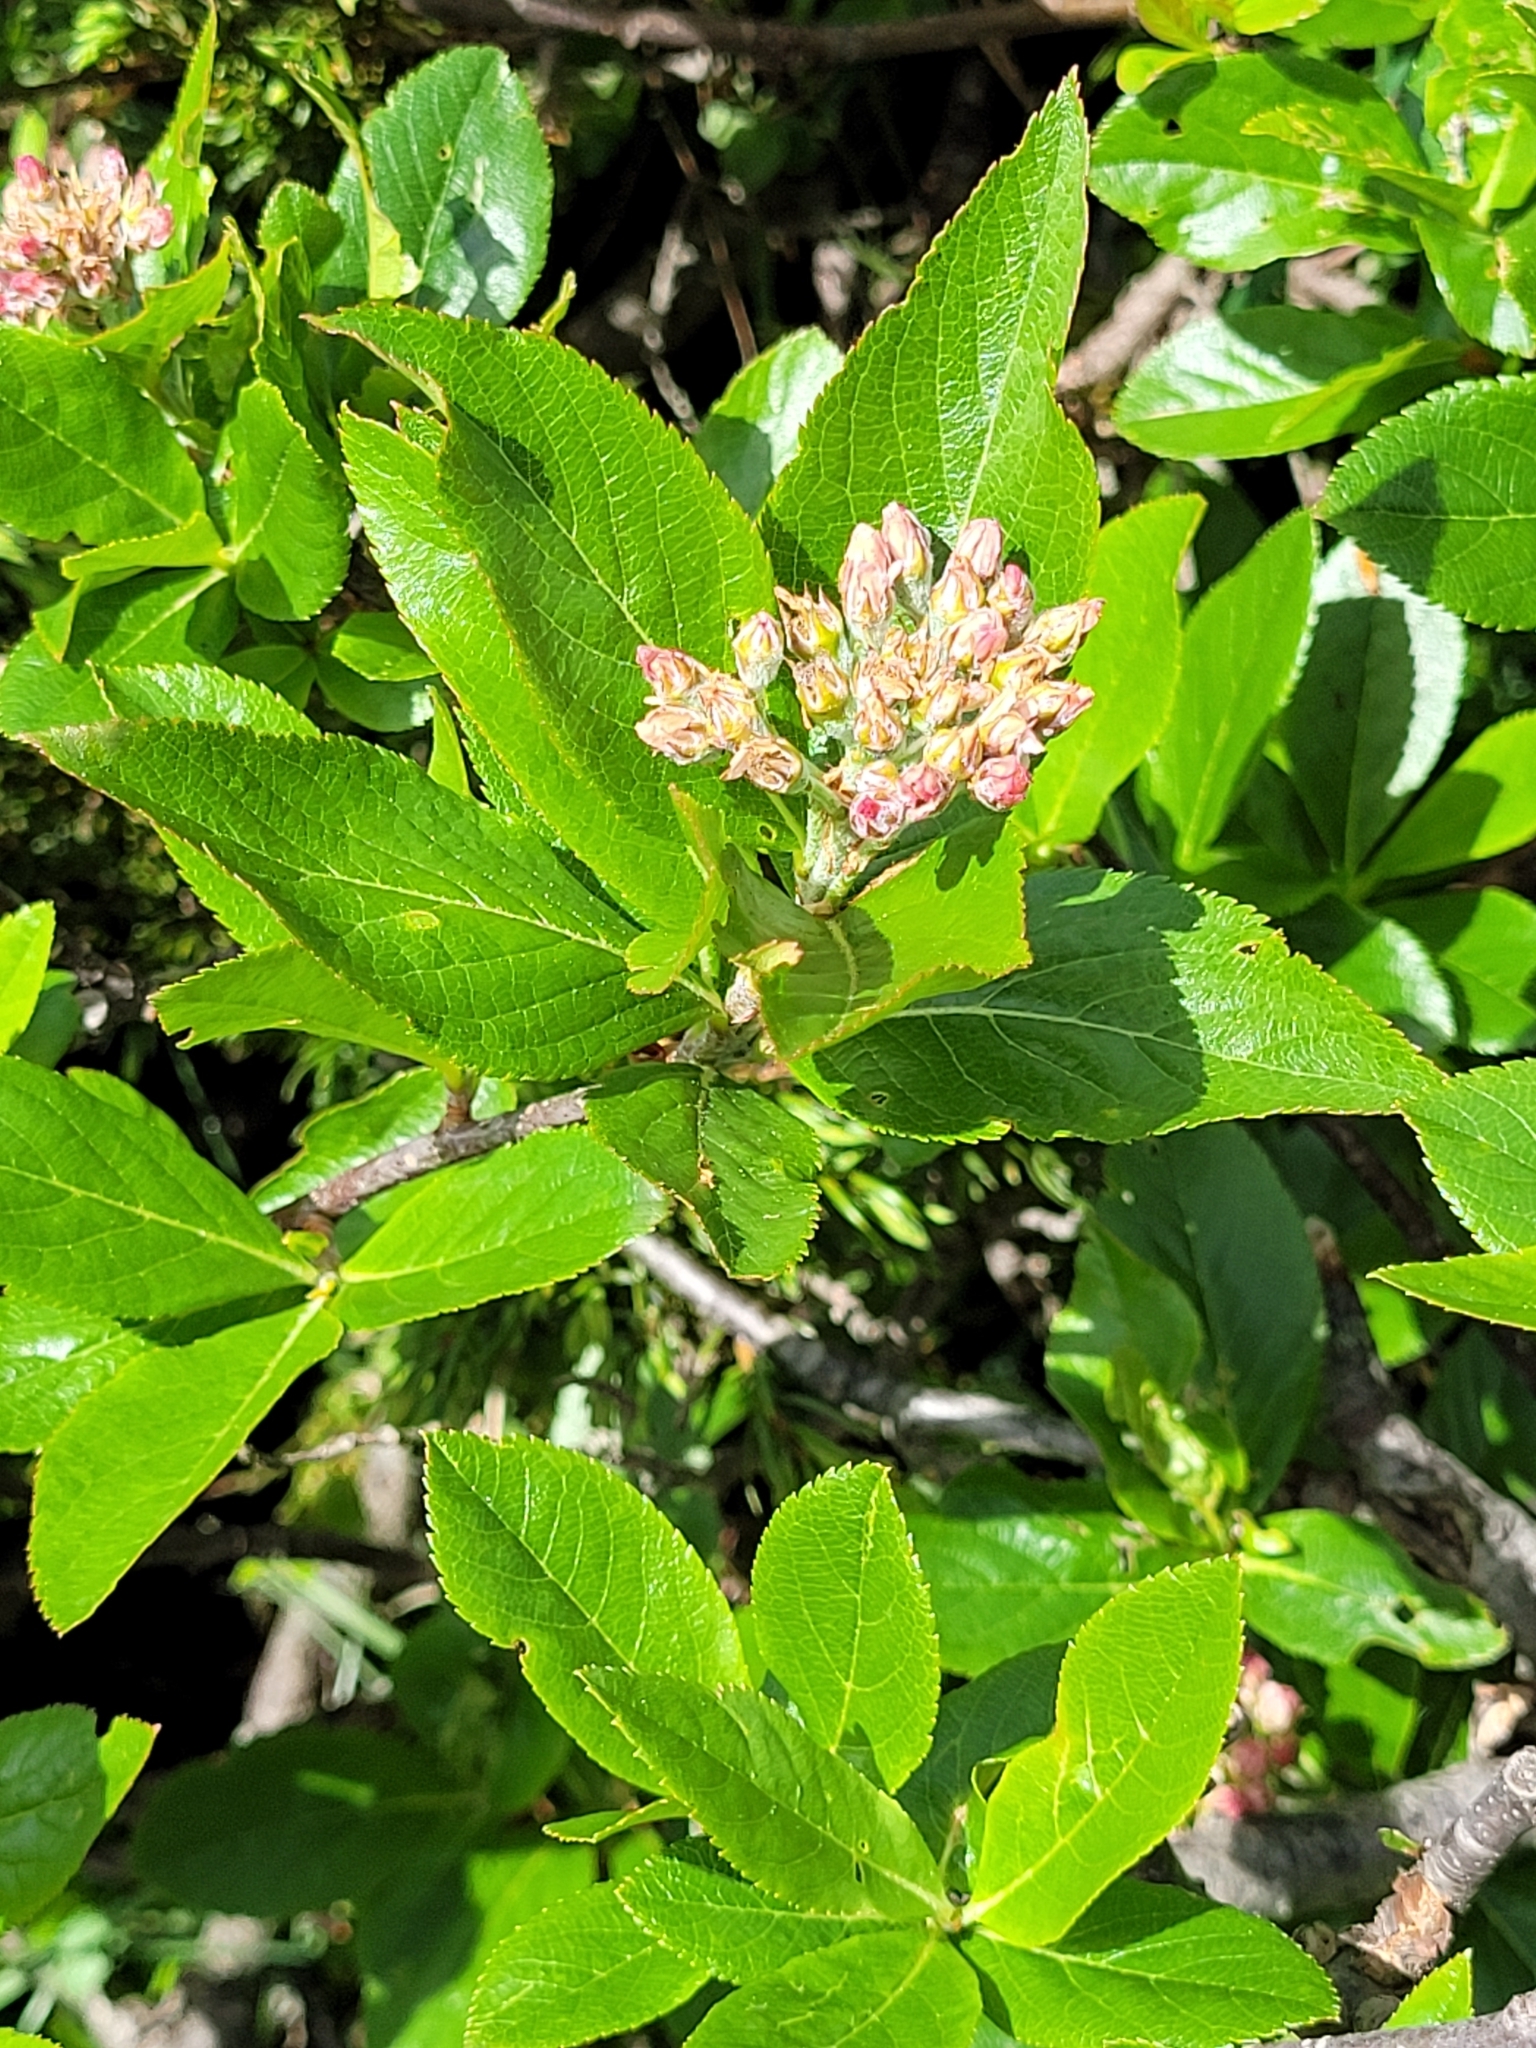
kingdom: Plantae
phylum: Tracheophyta
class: Magnoliopsida
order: Rosales
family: Rosaceae
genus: Chamaemespilus
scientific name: Chamaemespilus alpina
